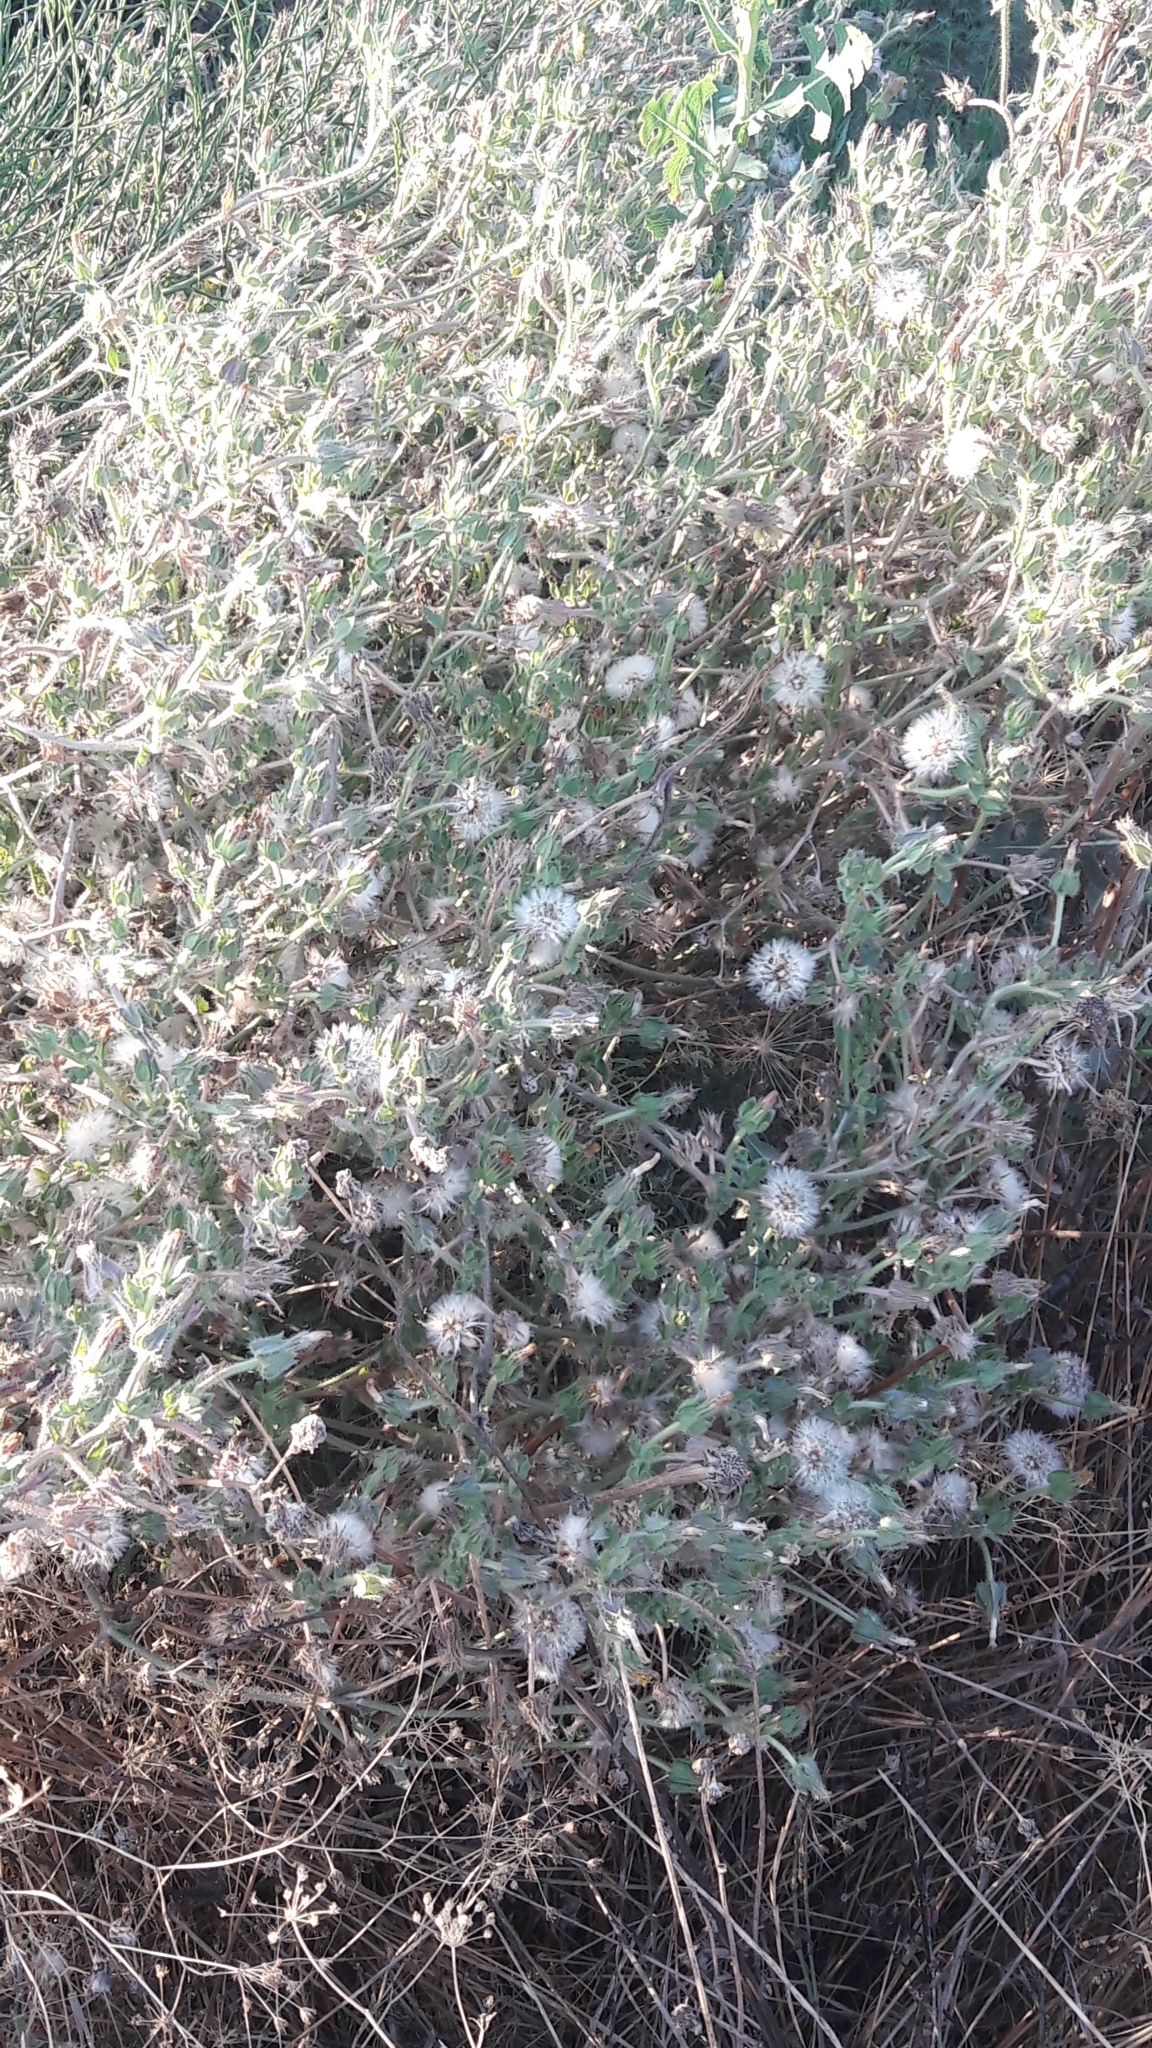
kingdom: Plantae
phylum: Tracheophyta
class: Magnoliopsida
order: Asterales
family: Asteraceae
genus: Helminthotheca
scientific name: Helminthotheca echioides
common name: Ox-tongue
